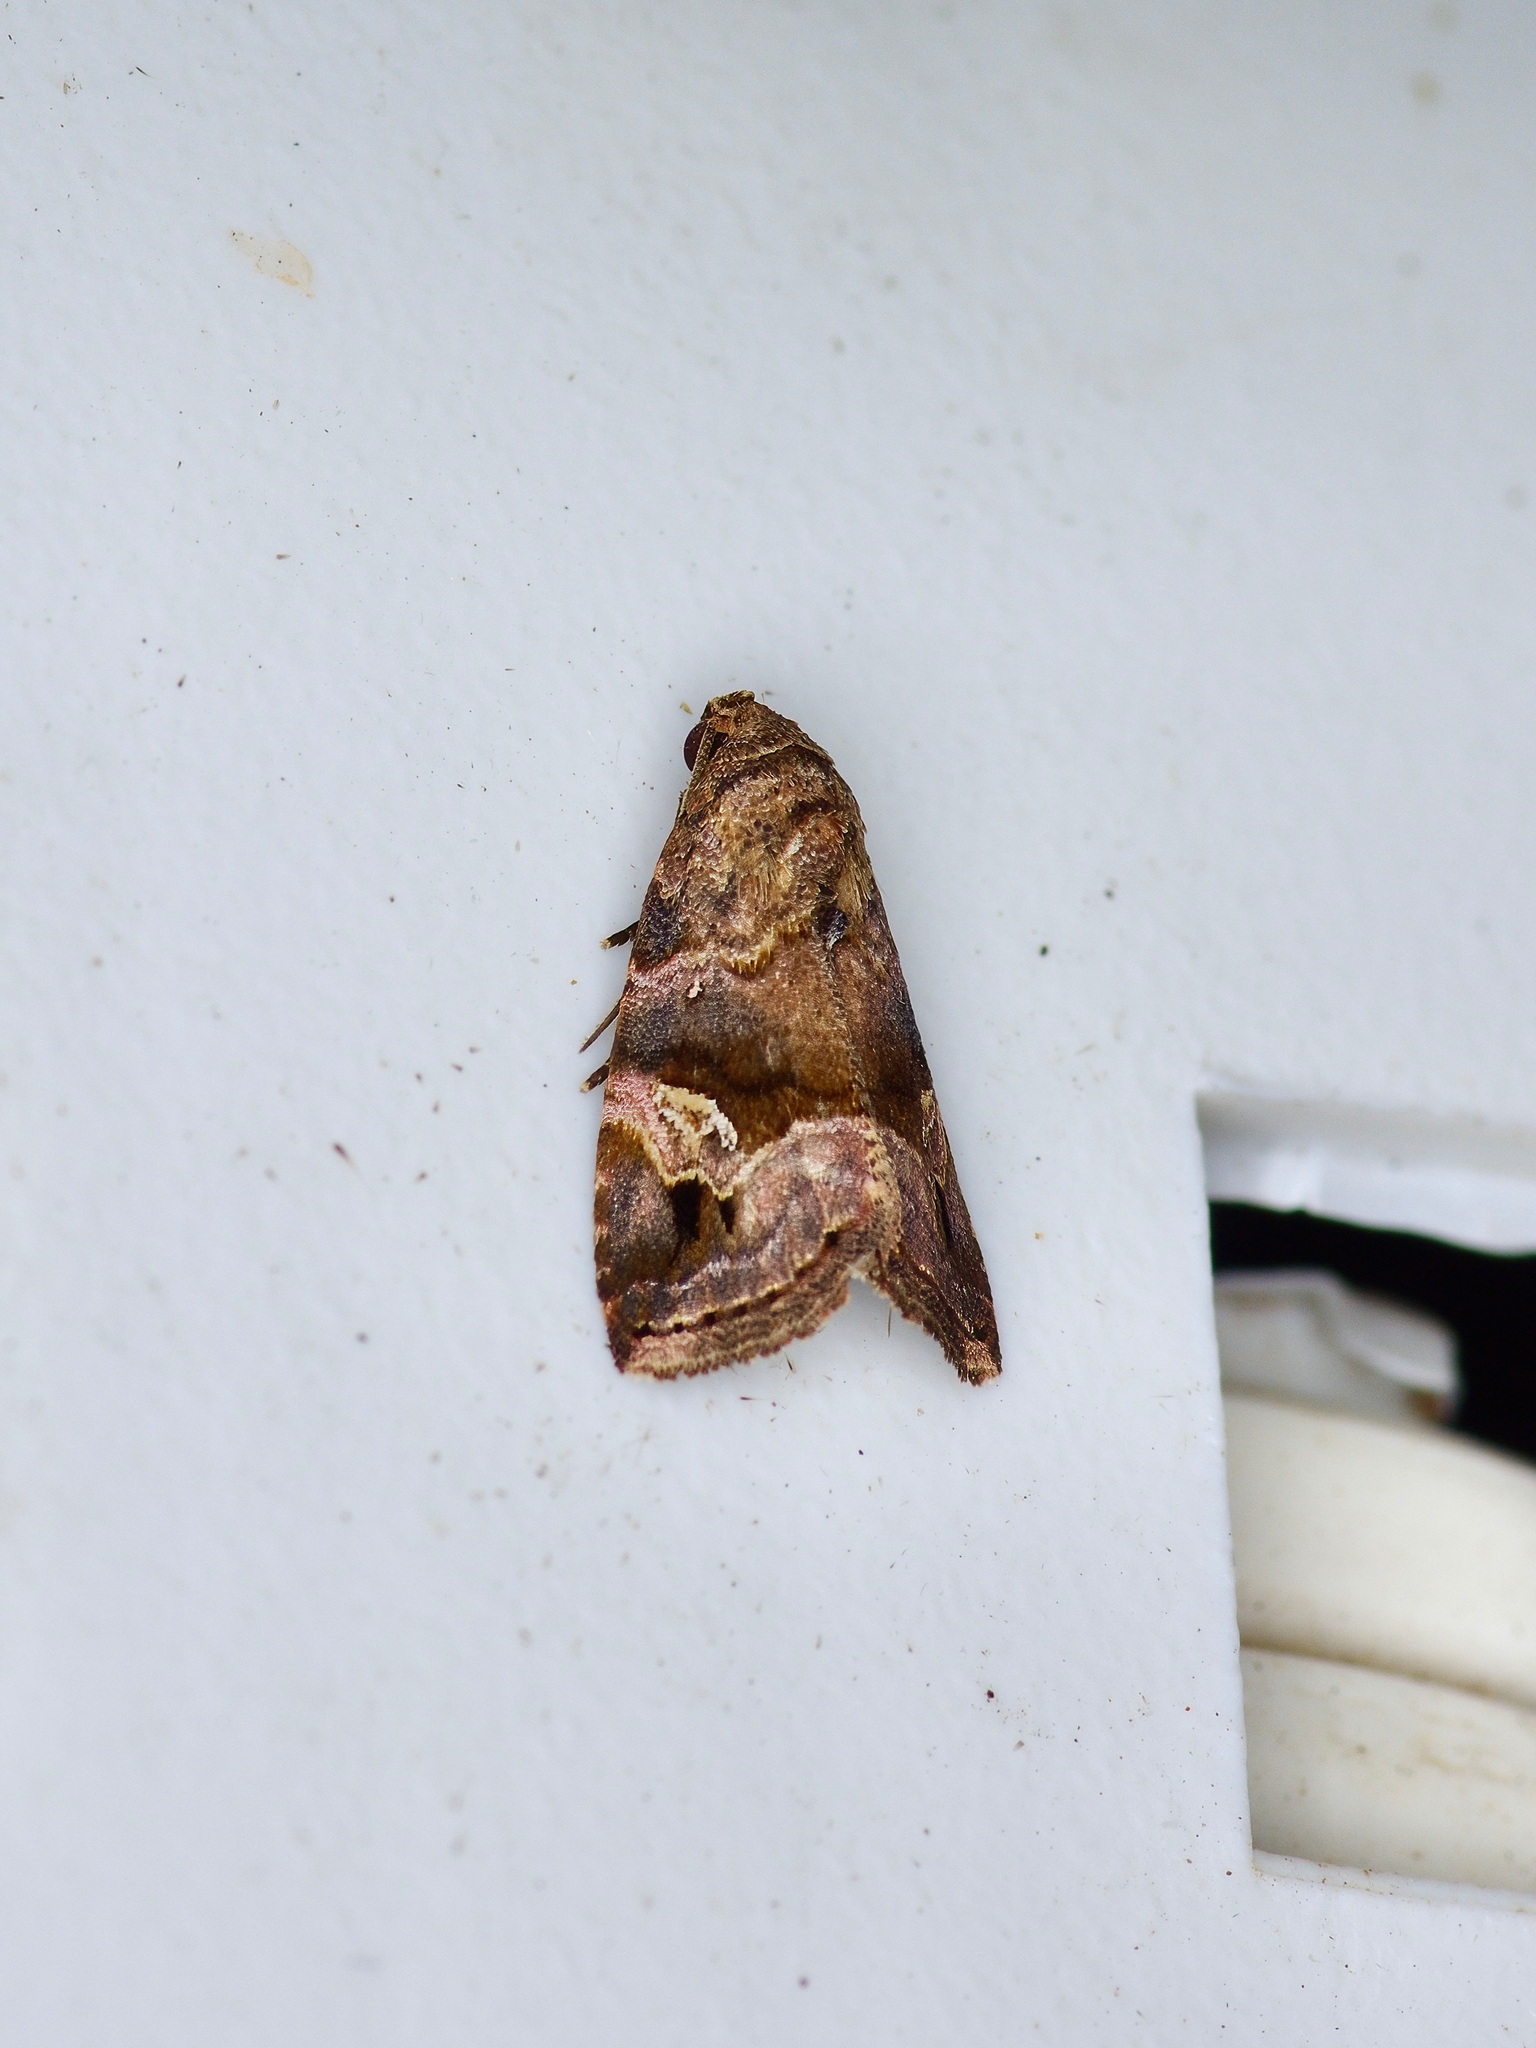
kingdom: Animalia
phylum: Arthropoda
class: Insecta
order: Lepidoptera
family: Noctuidae
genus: Ozarba
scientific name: Ozarba nebula
